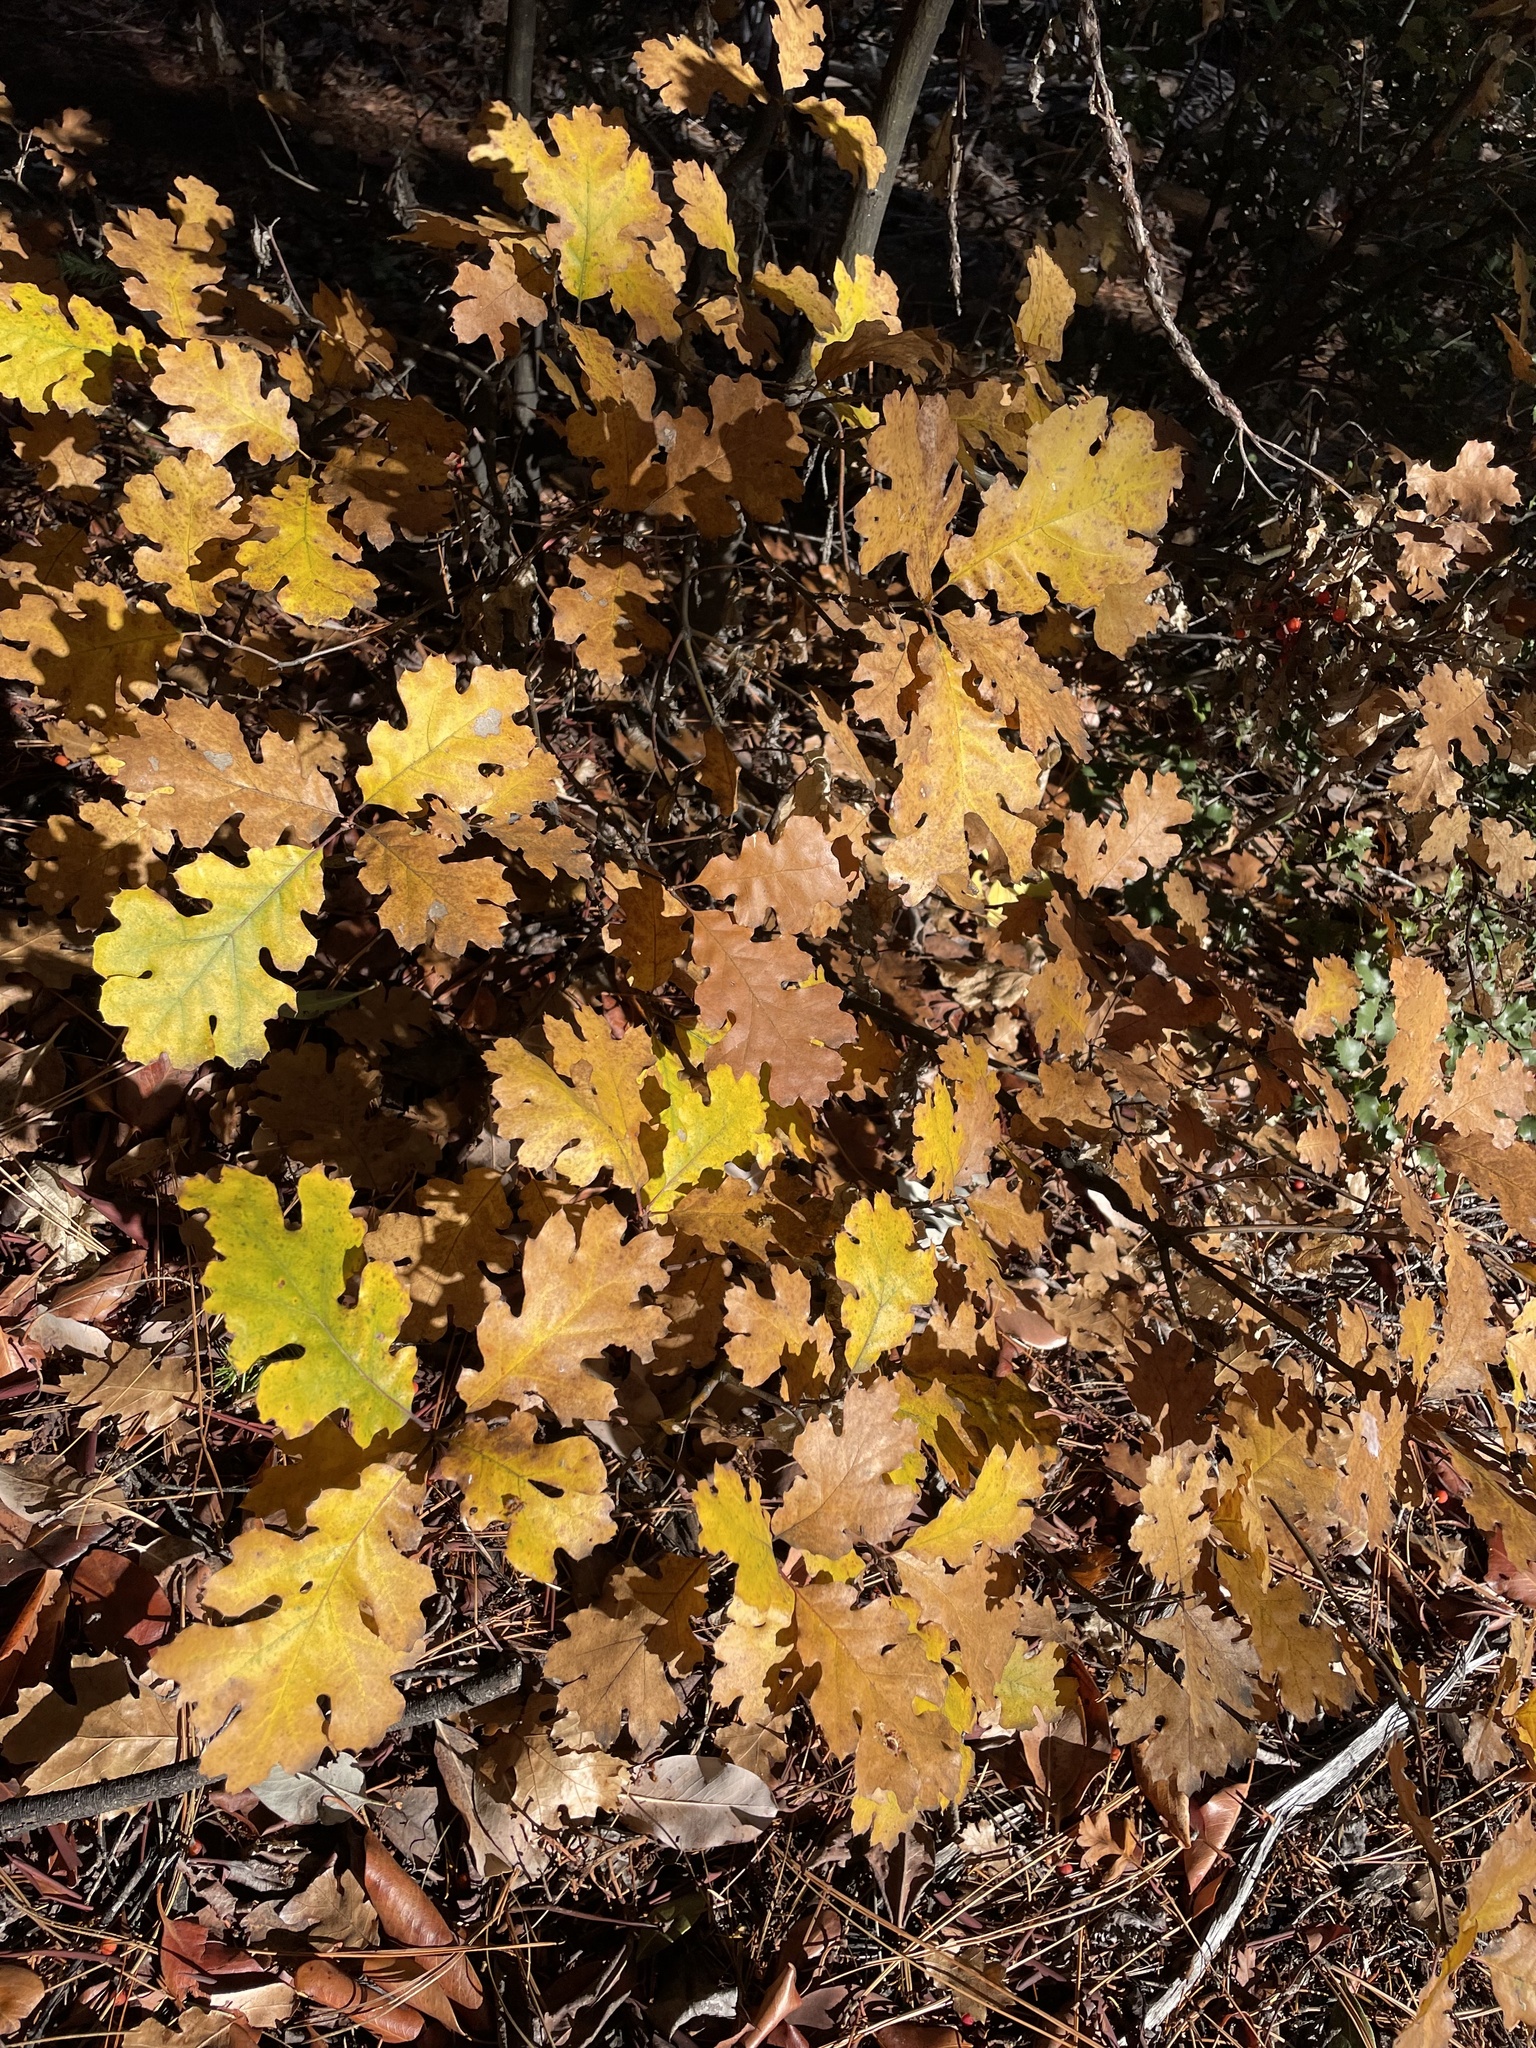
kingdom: Plantae
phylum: Tracheophyta
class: Magnoliopsida
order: Fagales
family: Fagaceae
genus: Quercus
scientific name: Quercus kelloggii
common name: California black oak
